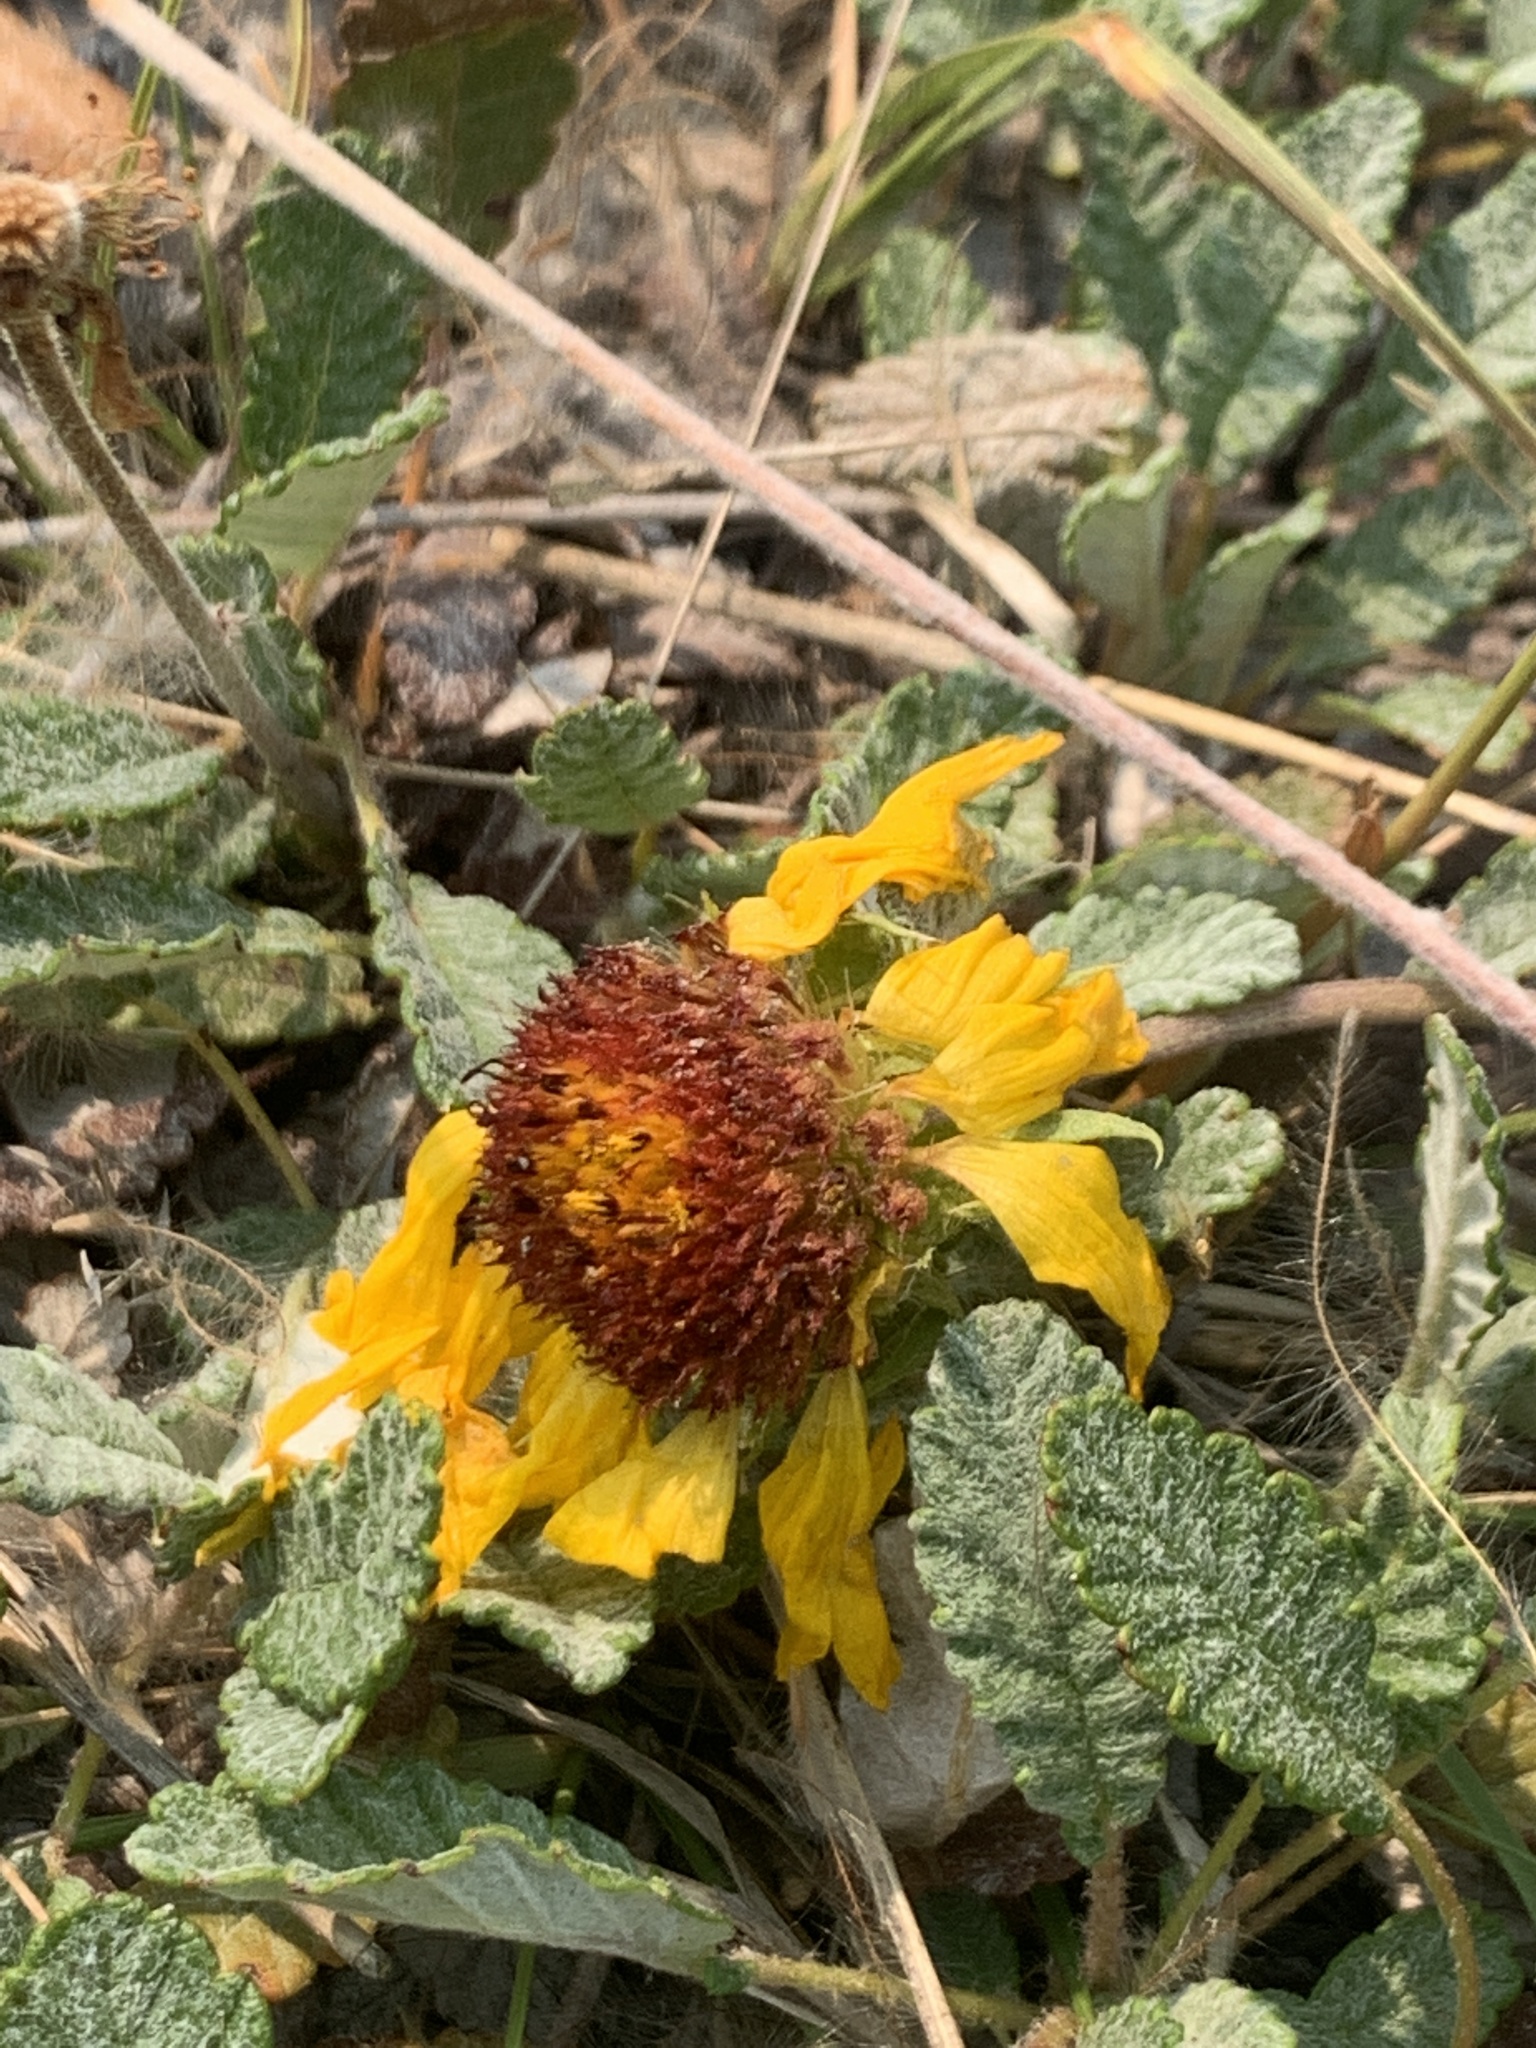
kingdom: Plantae
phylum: Tracheophyta
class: Magnoliopsida
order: Asterales
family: Asteraceae
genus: Gaillardia
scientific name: Gaillardia aristata
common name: Blanket-flower
